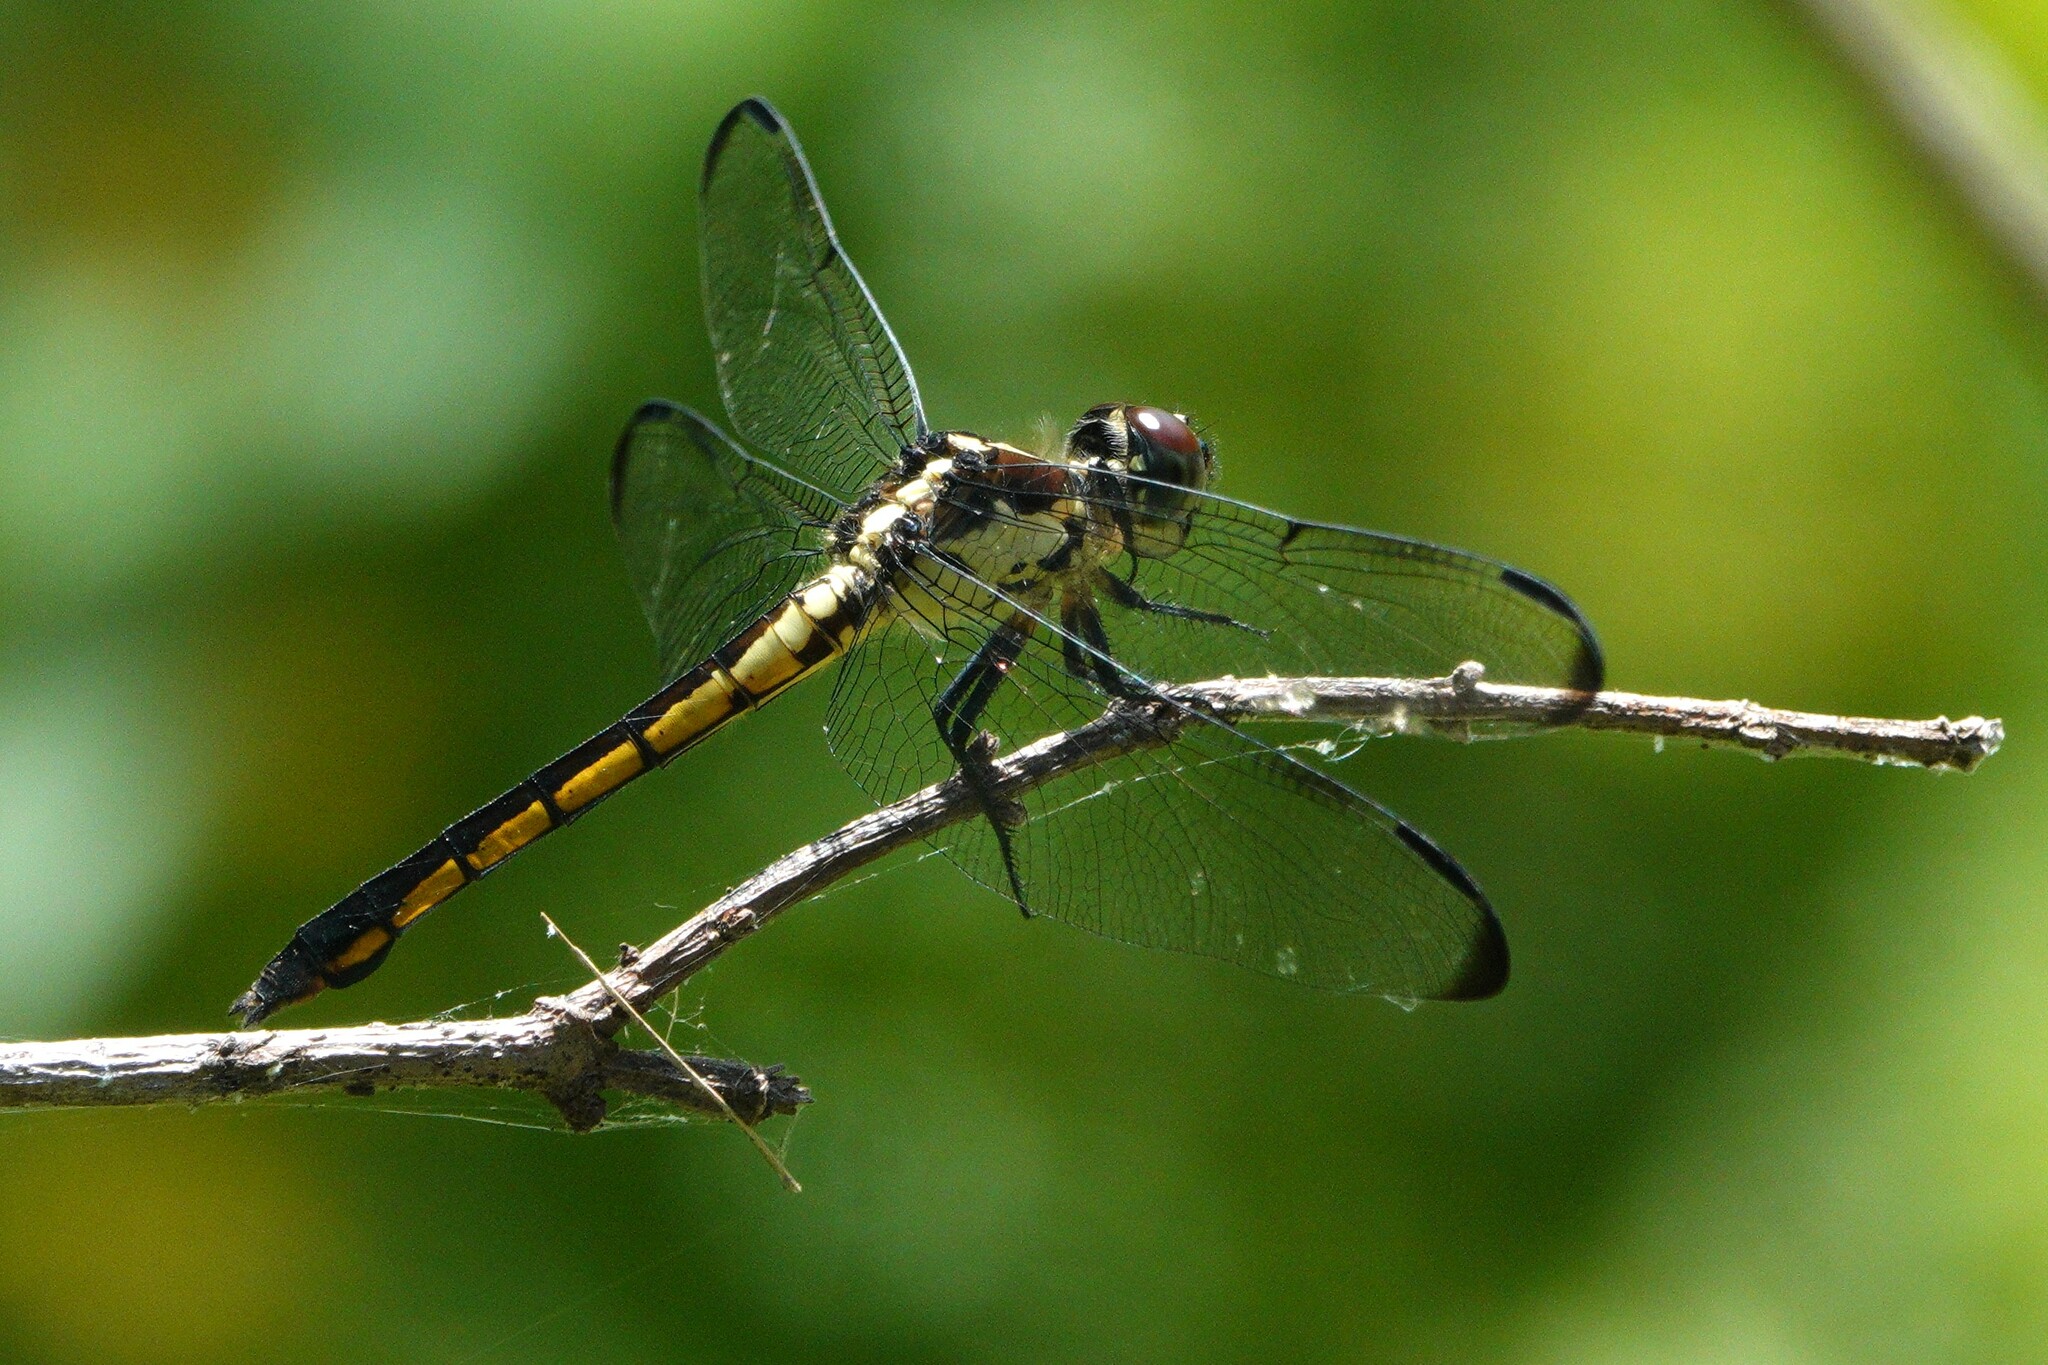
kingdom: Animalia
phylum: Arthropoda
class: Insecta
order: Odonata
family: Libellulidae
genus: Libellula
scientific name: Libellula incesta
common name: Slaty skimmer
